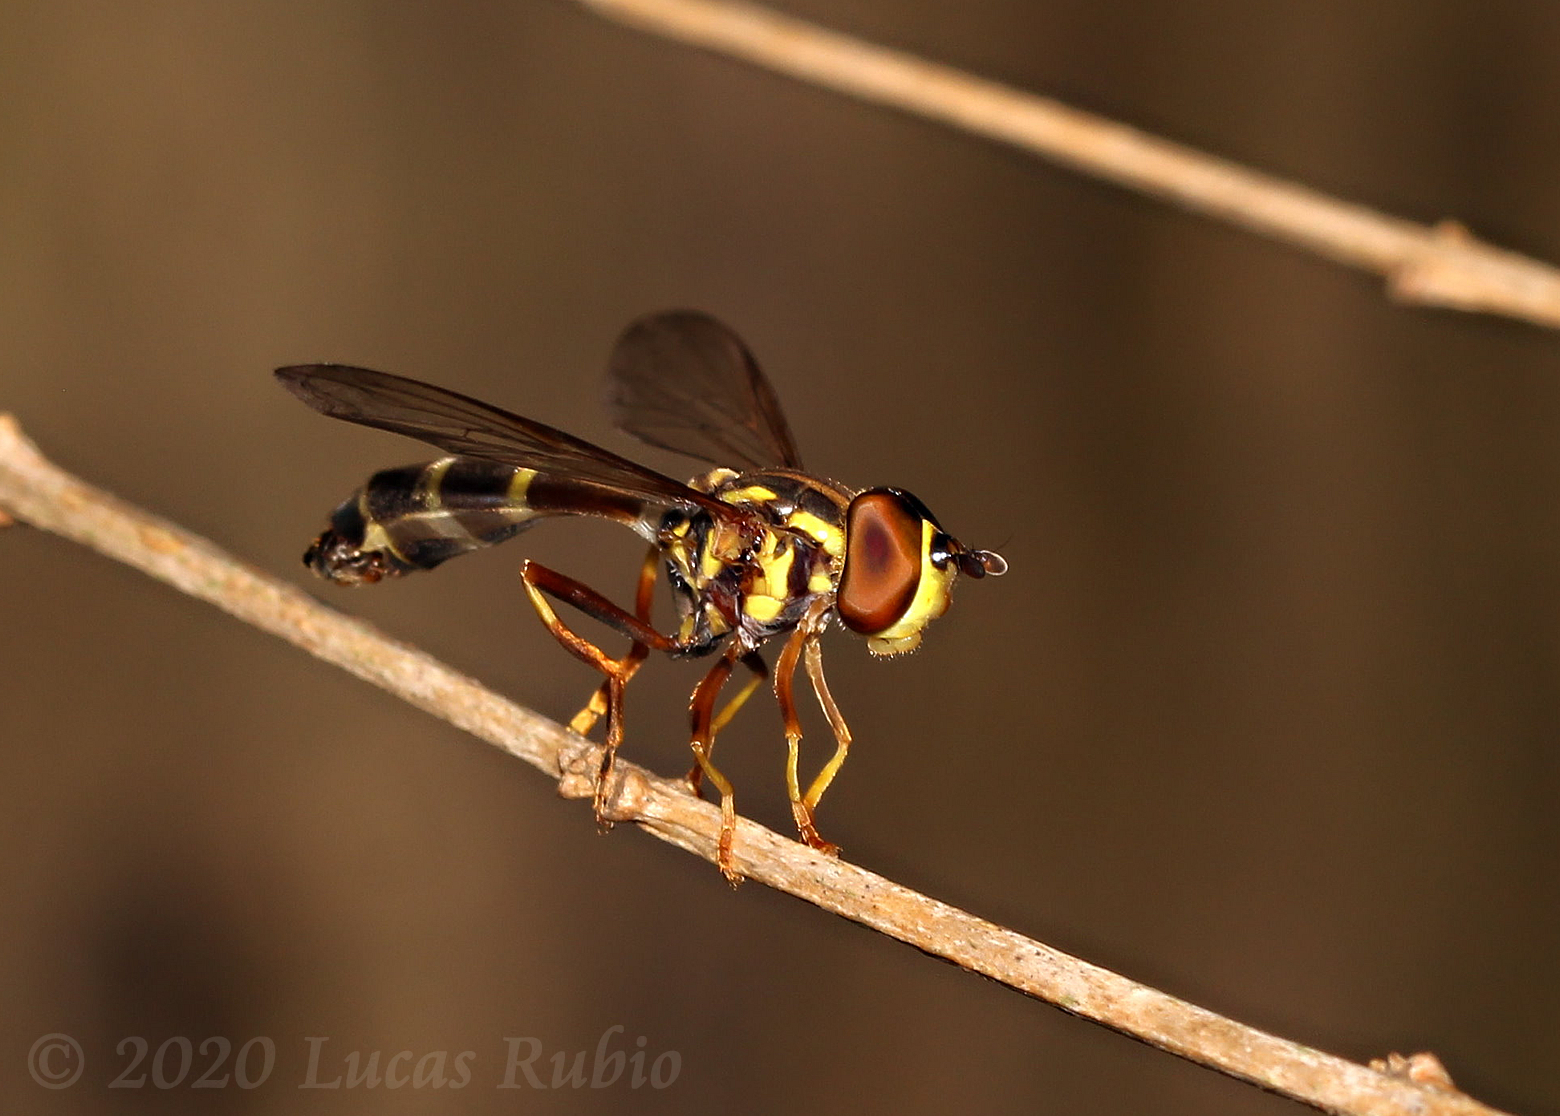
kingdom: Animalia
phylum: Arthropoda
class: Insecta
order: Diptera
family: Syrphidae
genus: Mimocalla
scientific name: Mimocalla bonariensis
